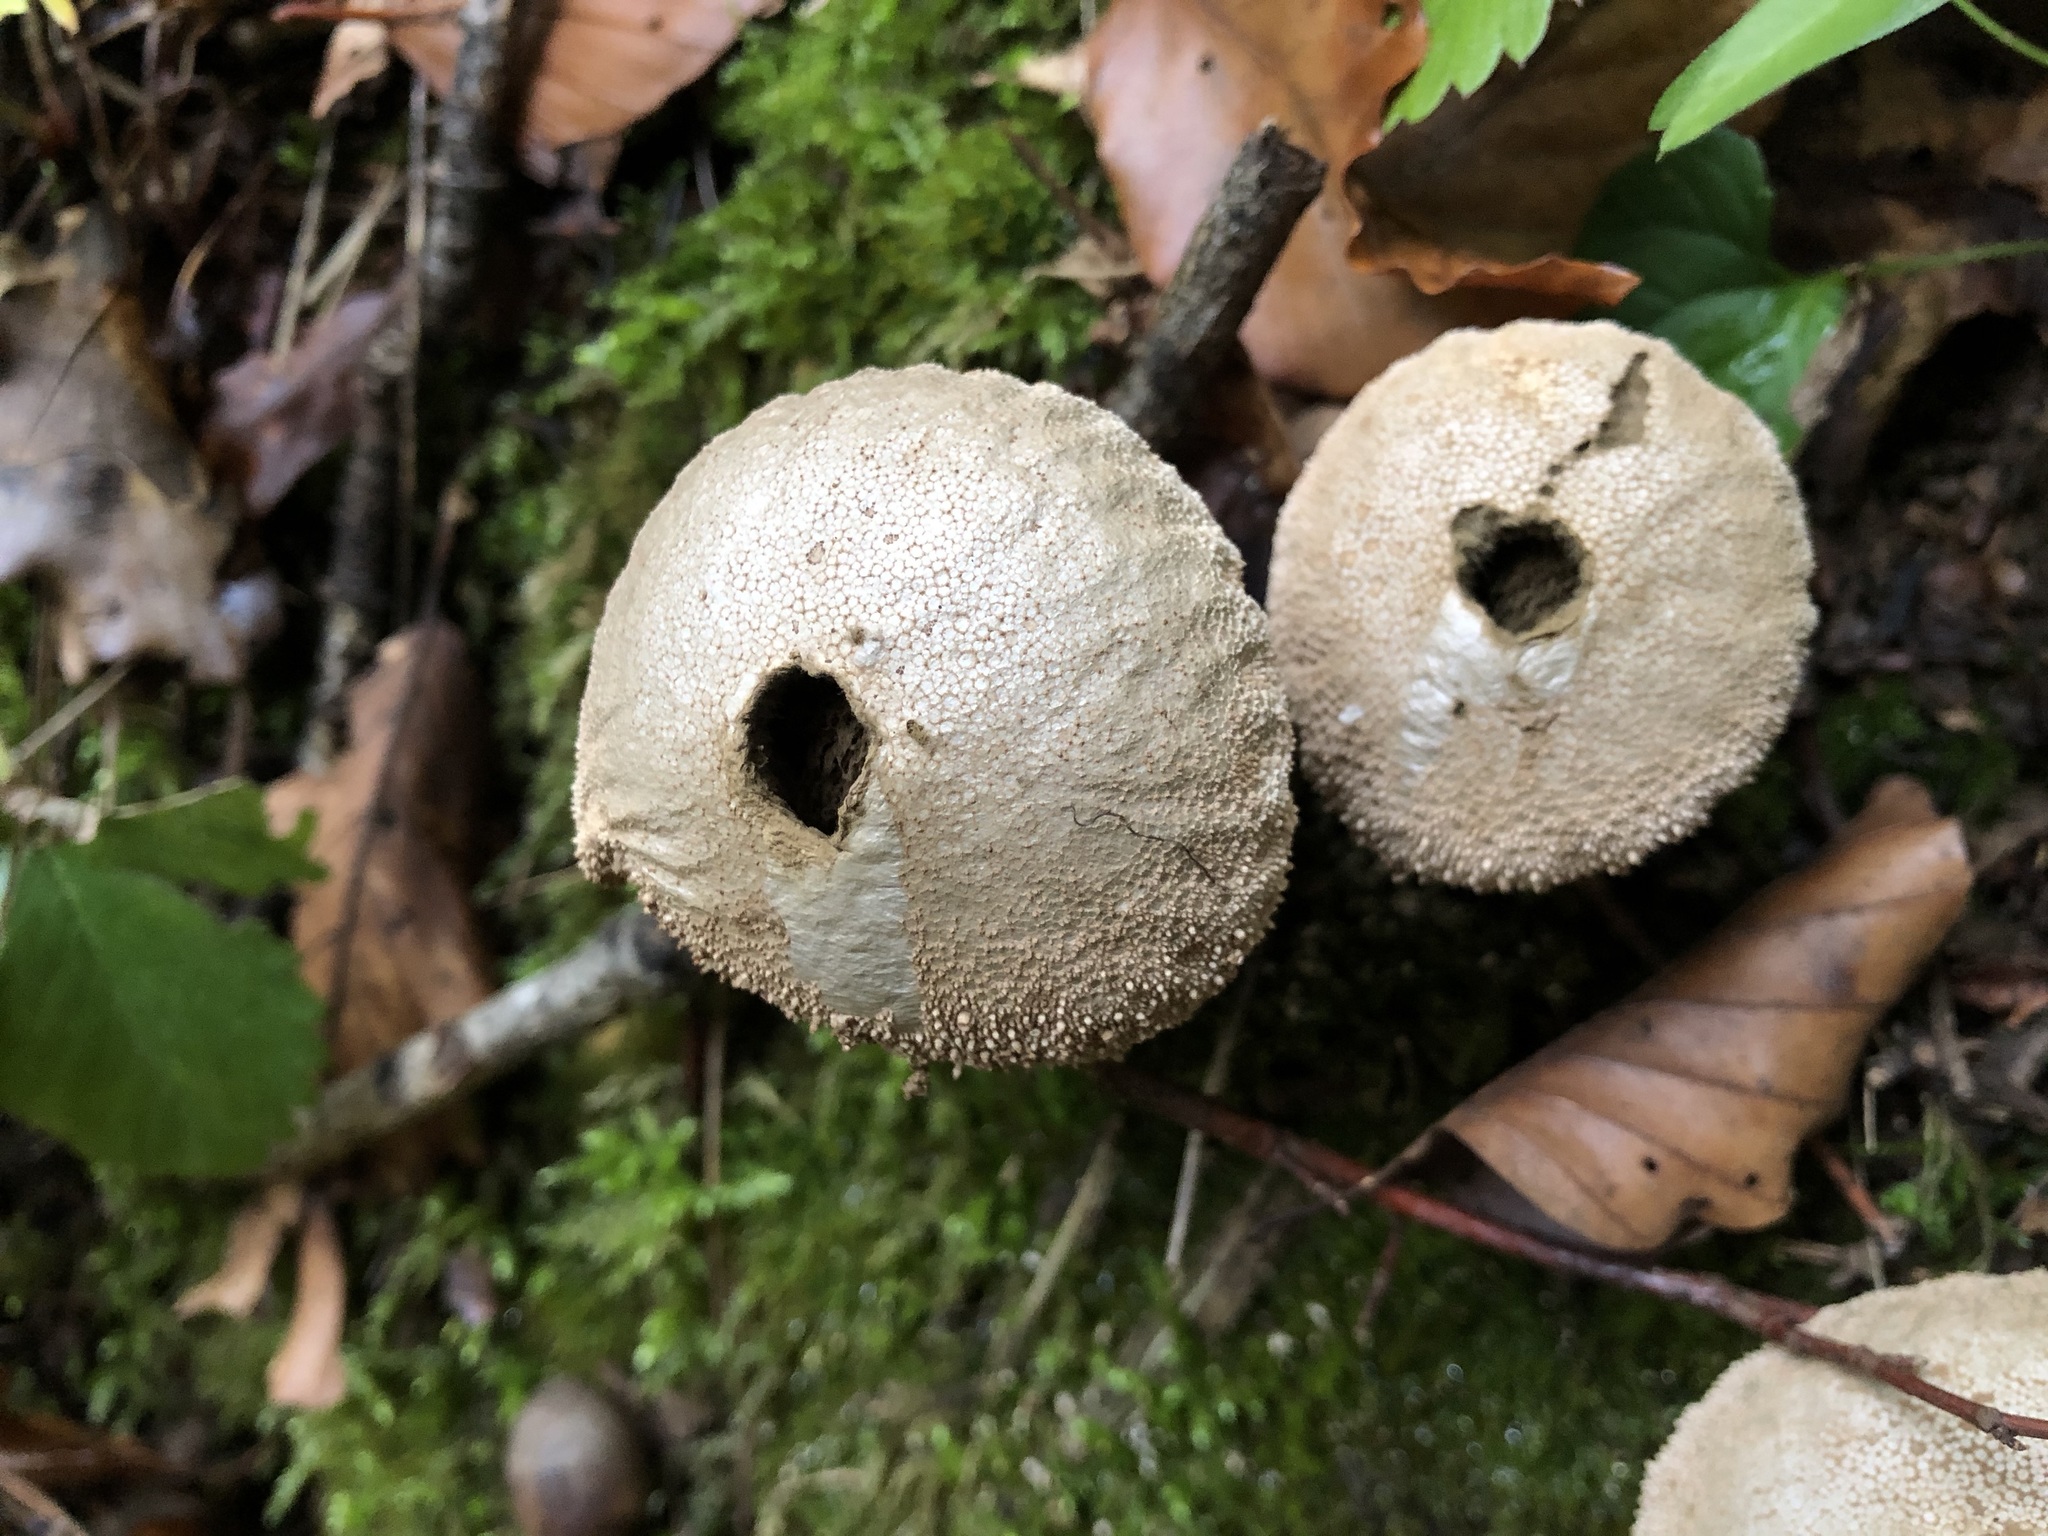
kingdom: Fungi
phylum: Basidiomycota
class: Agaricomycetes
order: Agaricales
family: Lycoperdaceae
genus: Lycoperdon
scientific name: Lycoperdon perlatum
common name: Common puffball
